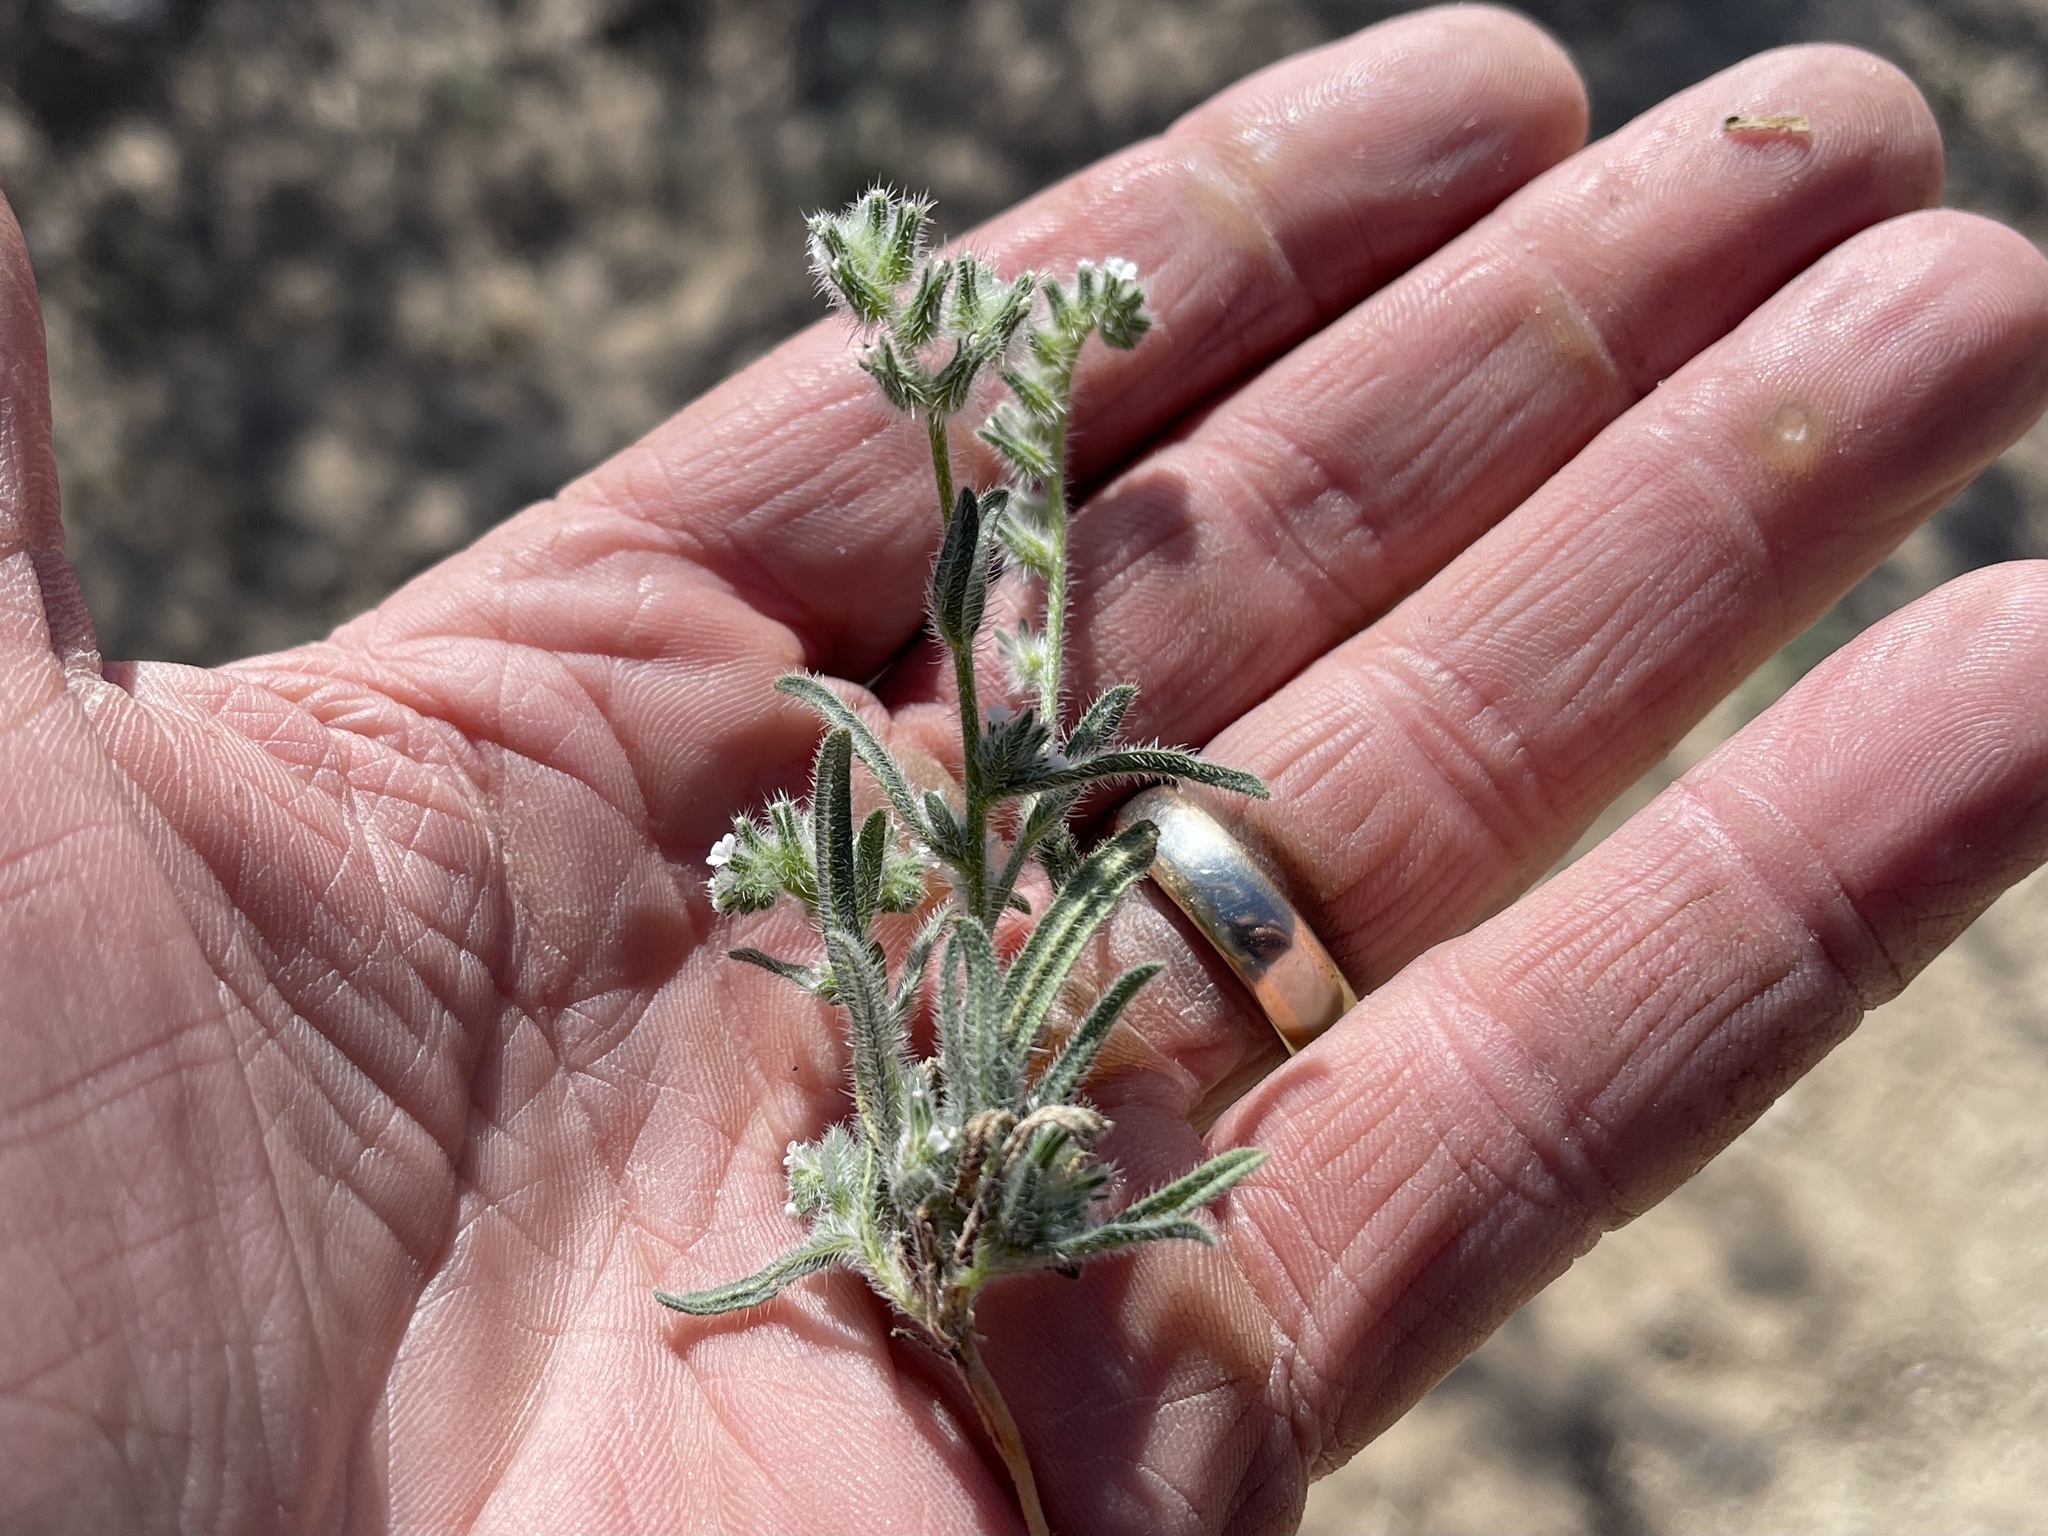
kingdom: Plantae
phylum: Tracheophyta
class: Magnoliopsida
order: Boraginales
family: Boraginaceae
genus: Cryptantha
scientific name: Cryptantha pterocarya
